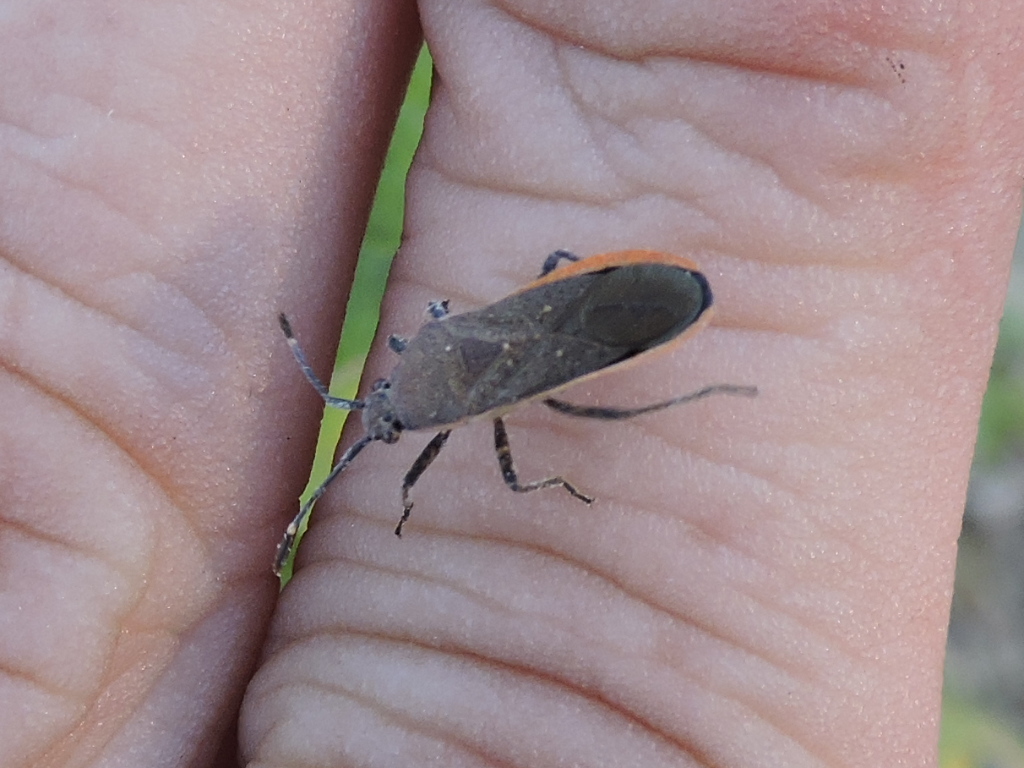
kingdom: Animalia
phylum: Arthropoda
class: Insecta
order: Hemiptera
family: Coreidae
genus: Catorhintha
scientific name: Catorhintha texana
